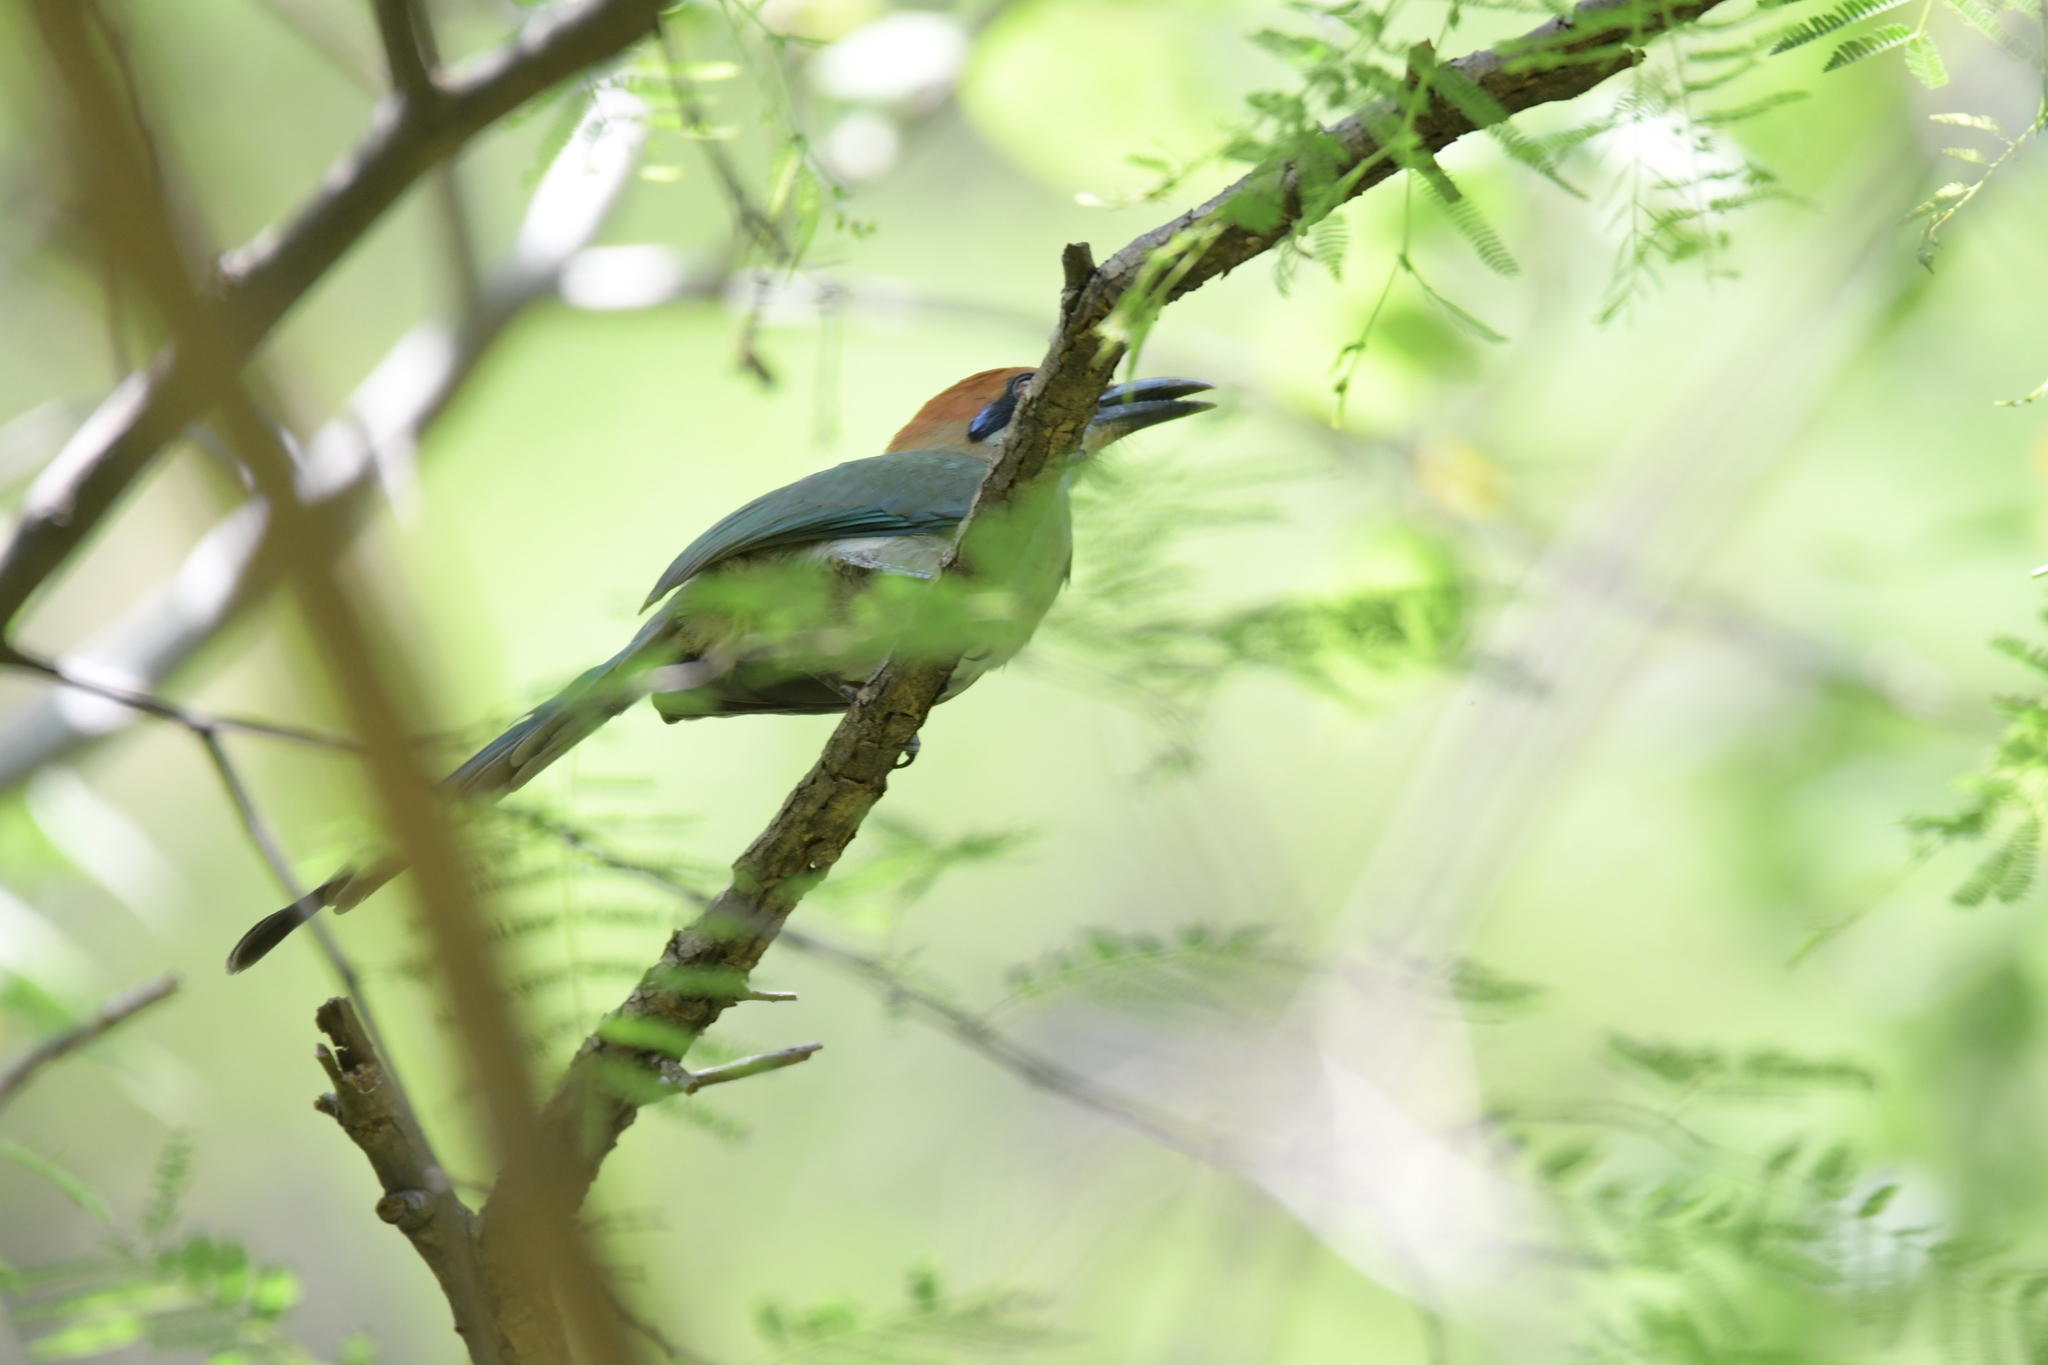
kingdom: Animalia
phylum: Chordata
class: Aves
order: Coraciiformes
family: Momotidae
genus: Momotus
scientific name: Momotus mexicanus
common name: Russet-crowned motmot
